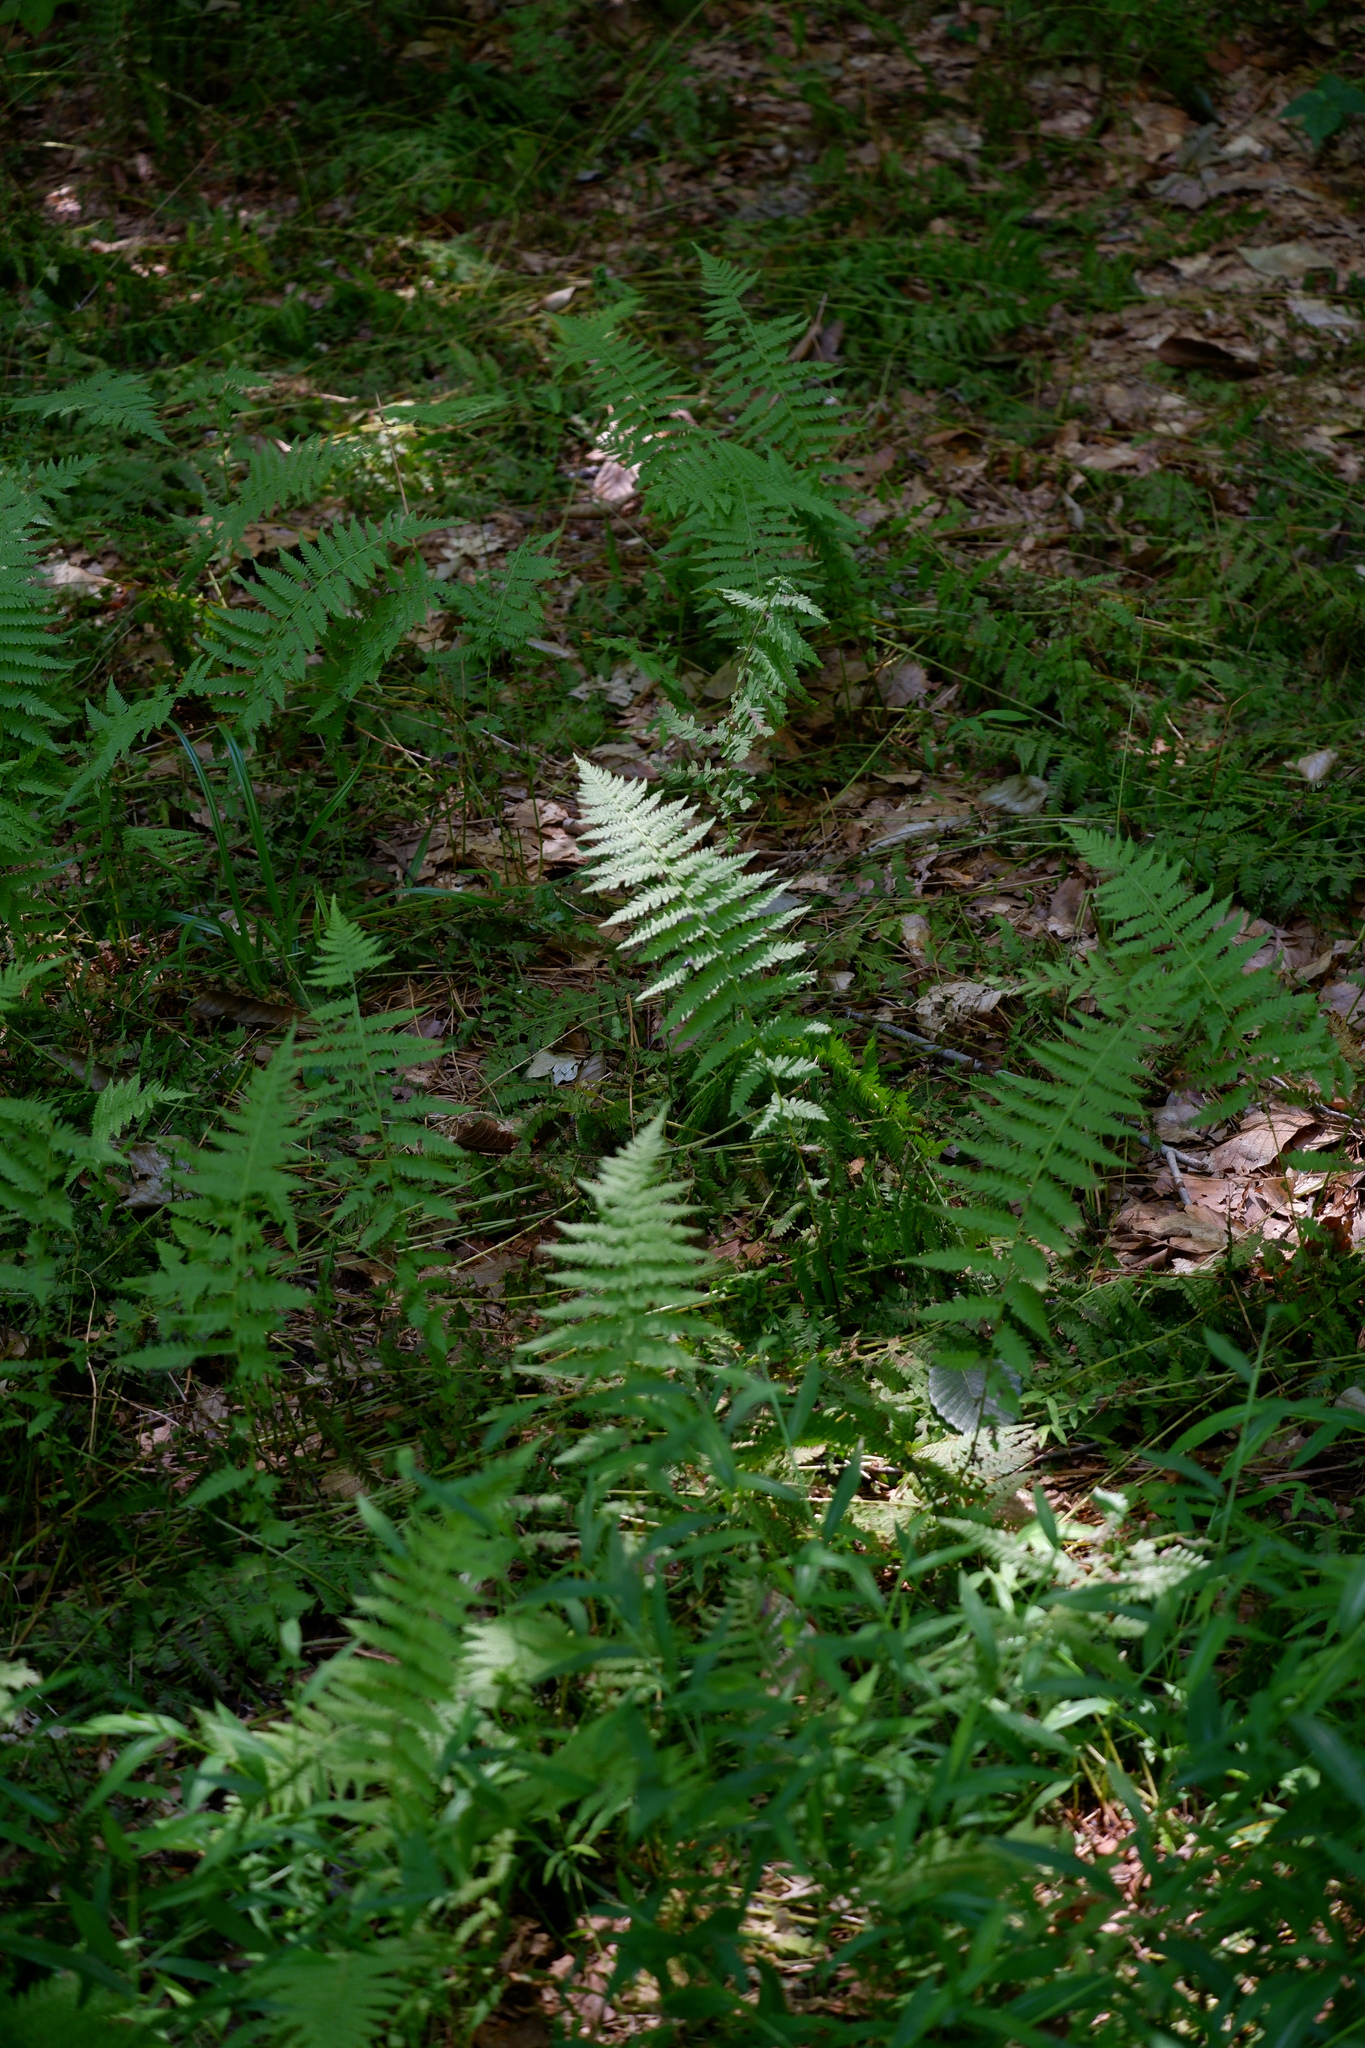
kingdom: Plantae
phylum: Tracheophyta
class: Polypodiopsida
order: Polypodiales
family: Thelypteridaceae
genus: Amauropelta
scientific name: Amauropelta noveboracensis
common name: New york fern
